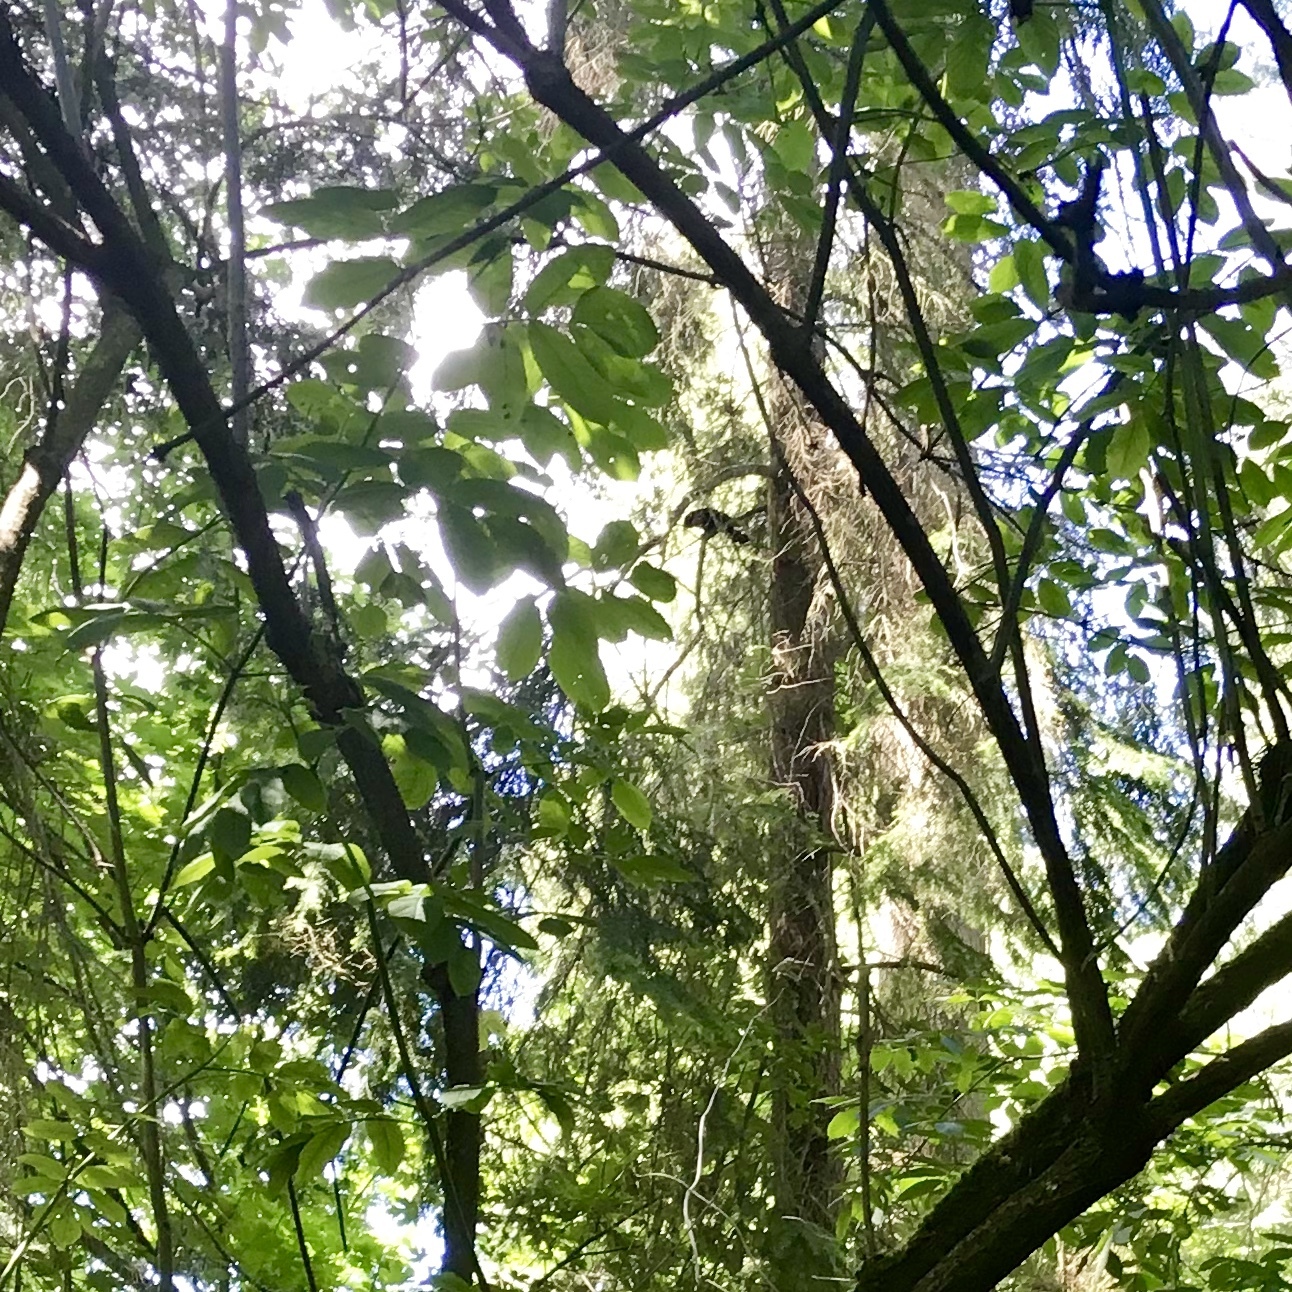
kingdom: Animalia
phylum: Chordata
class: Aves
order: Passeriformes
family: Corvidae
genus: Corvus
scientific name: Corvus brachyrhynchos
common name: American crow
